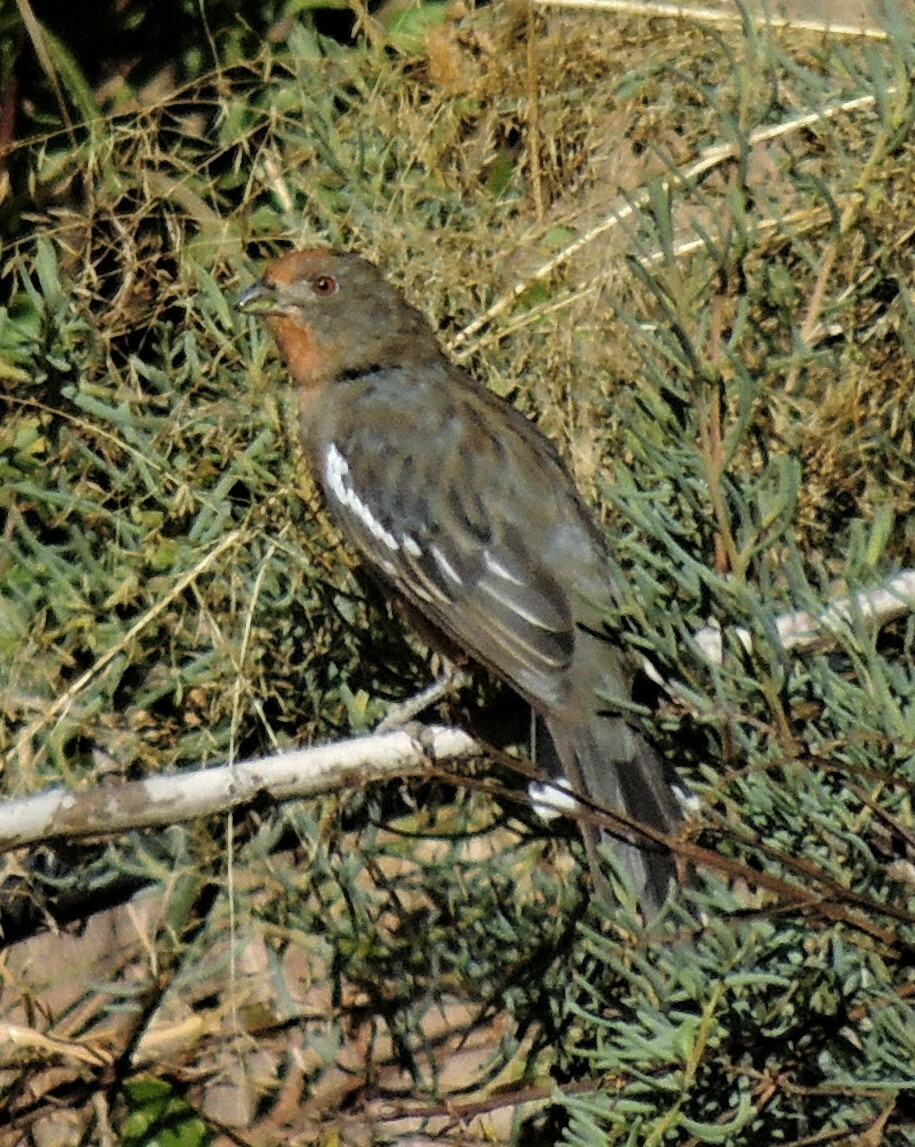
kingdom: Animalia
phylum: Chordata
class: Aves
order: Passeriformes
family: Cotingidae
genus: Phytotoma
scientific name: Phytotoma rutila
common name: White-tipped plantcutter
